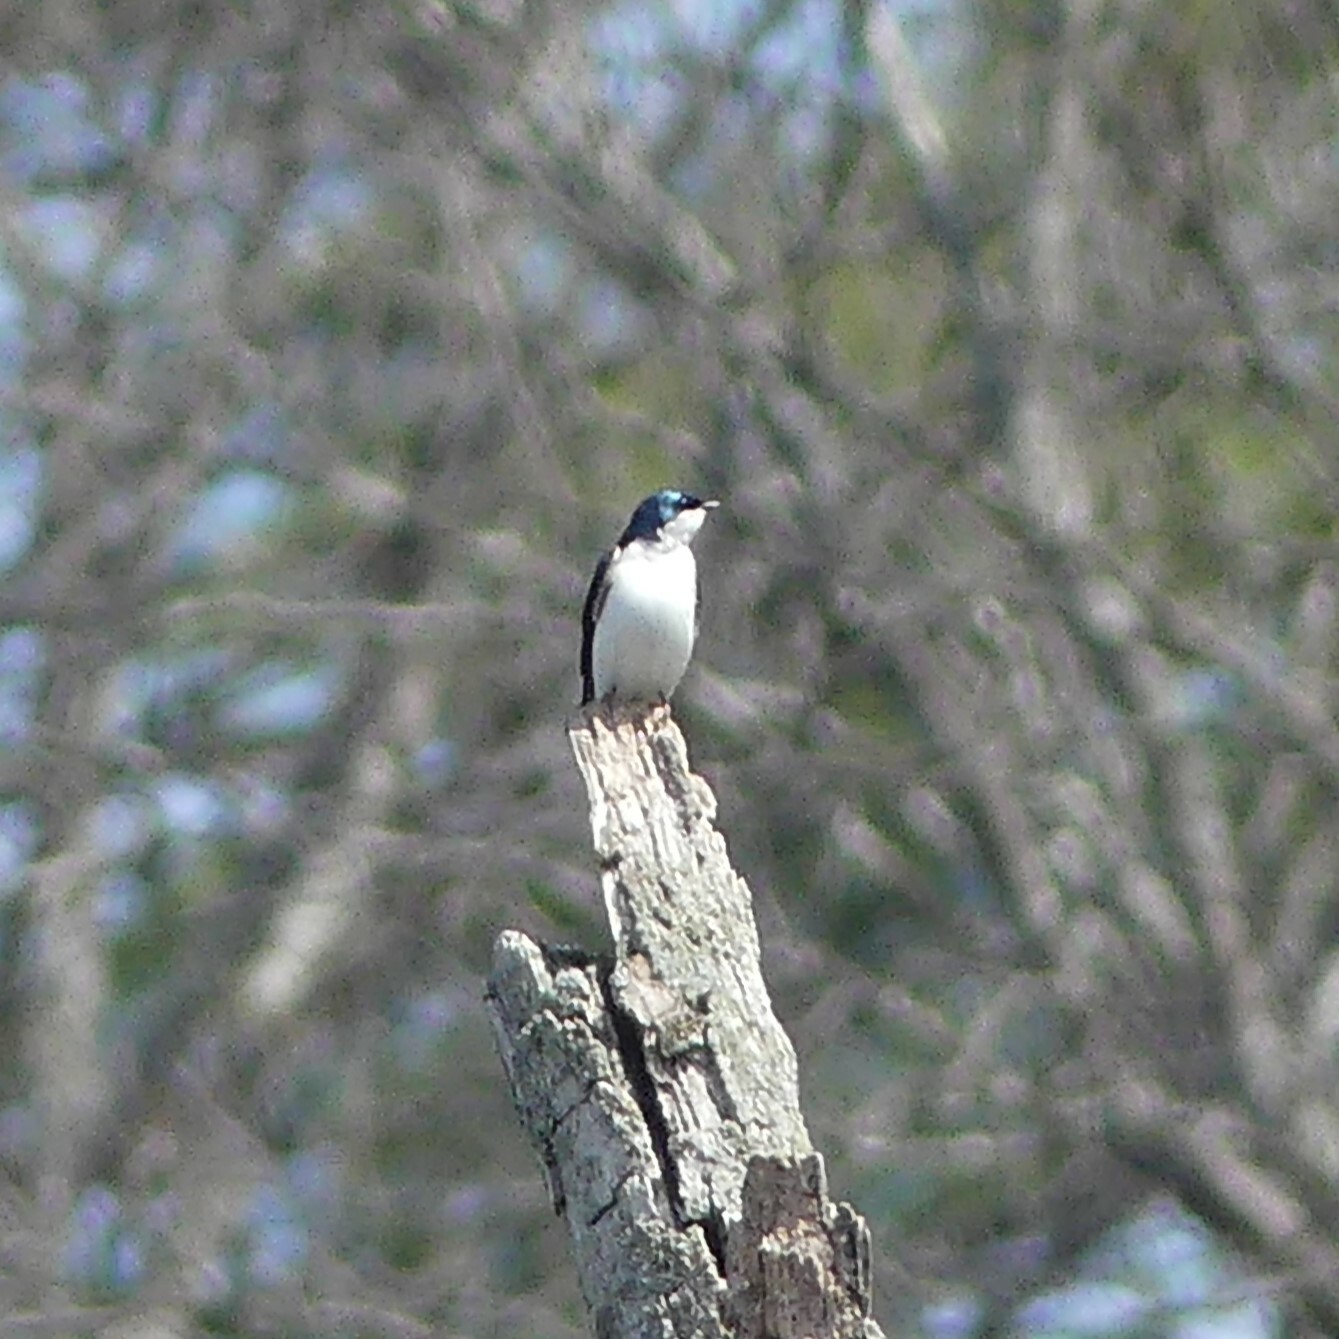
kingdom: Animalia
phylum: Chordata
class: Aves
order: Passeriformes
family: Hirundinidae
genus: Tachycineta
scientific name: Tachycineta bicolor
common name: Tree swallow
